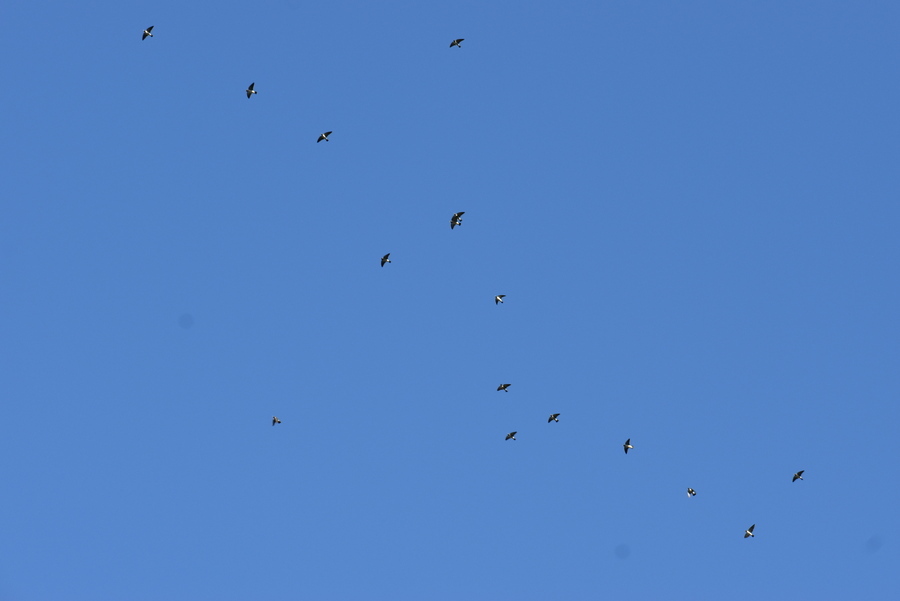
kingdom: Animalia
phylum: Chordata
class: Aves
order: Passeriformes
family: Artamidae
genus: Artamus
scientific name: Artamus leucoryn
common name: White-breasted woodswallow
